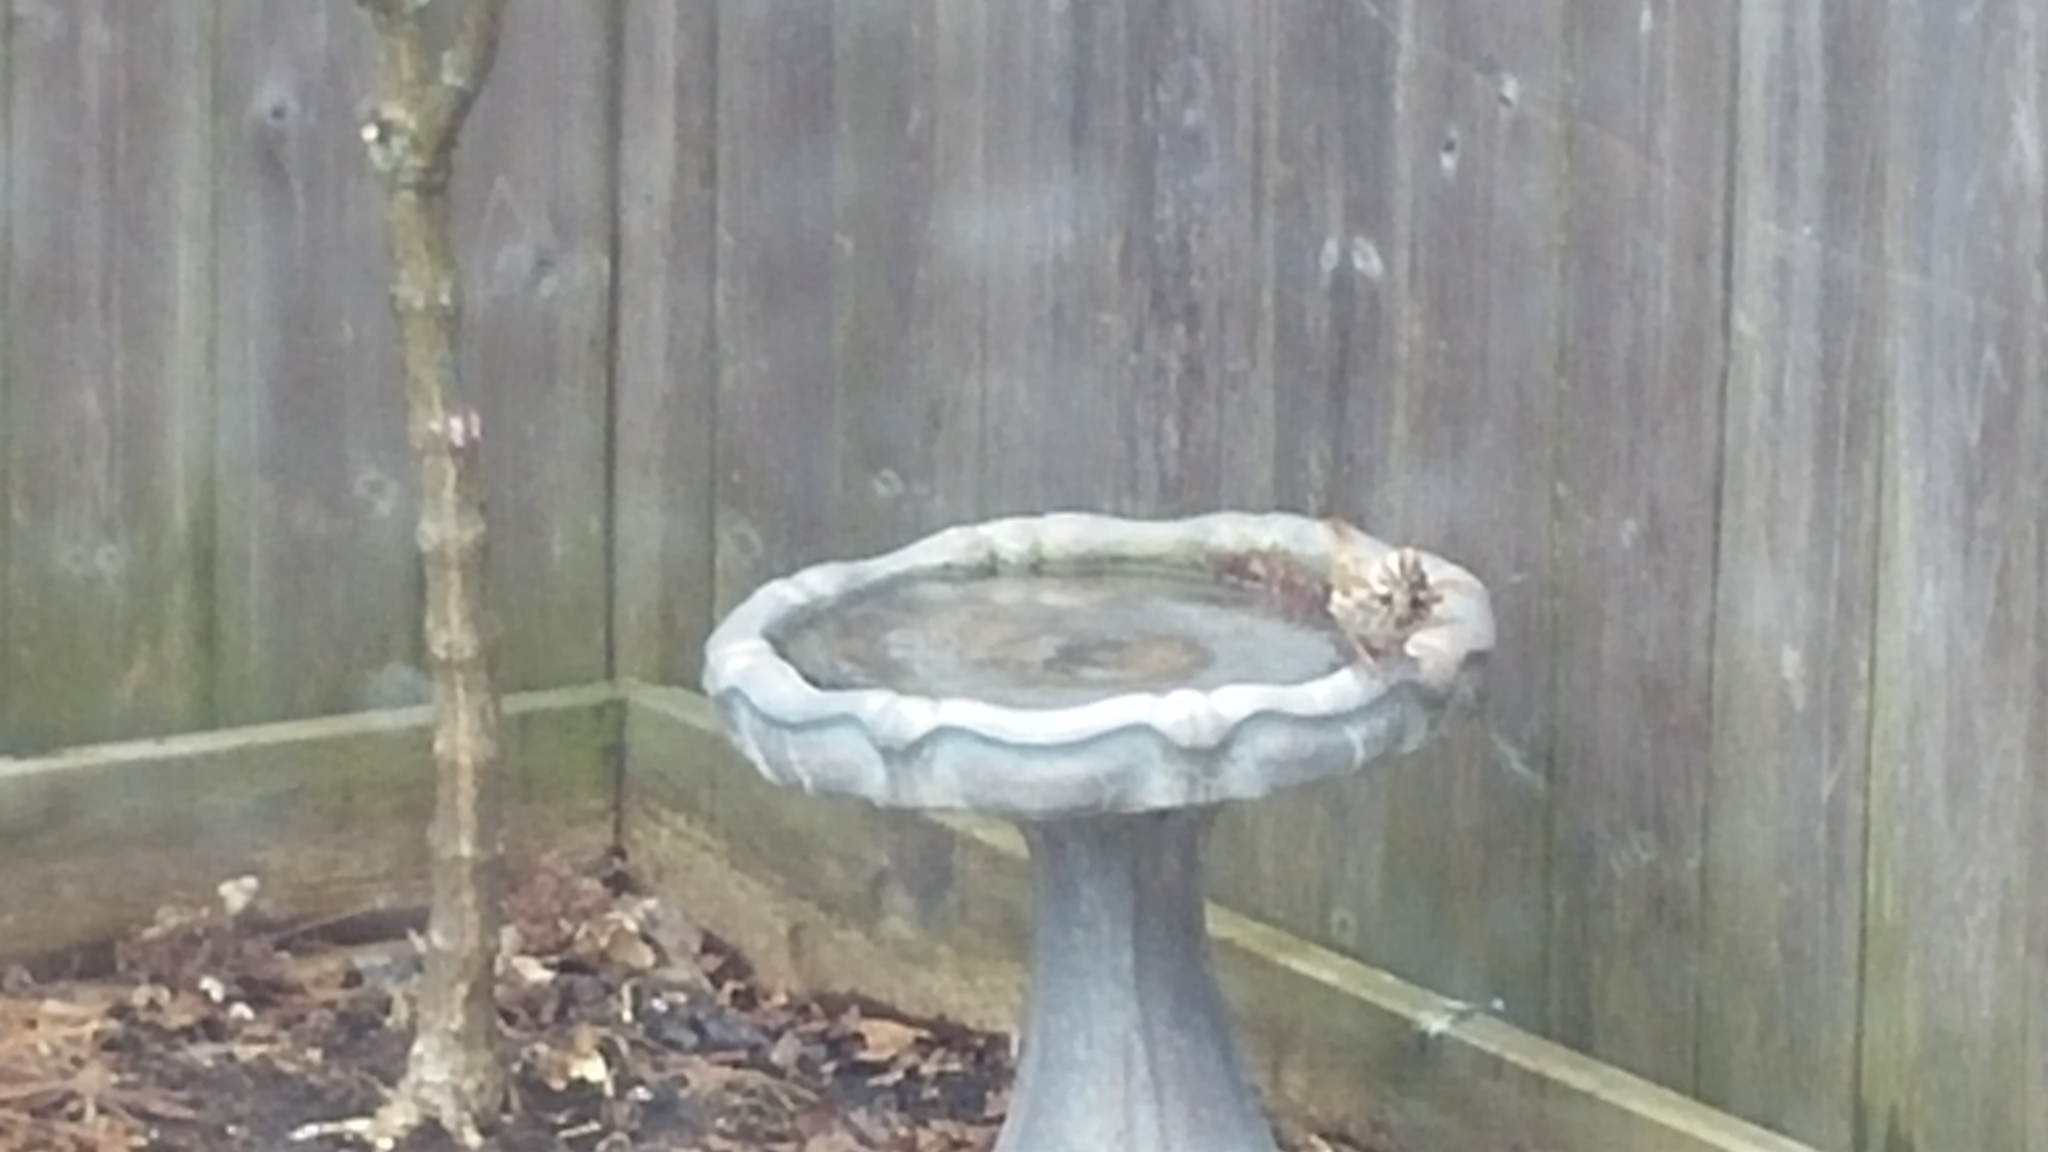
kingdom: Animalia
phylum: Chordata
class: Aves
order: Passeriformes
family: Passerellidae
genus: Melospiza
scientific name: Melospiza melodia
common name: Song sparrow
